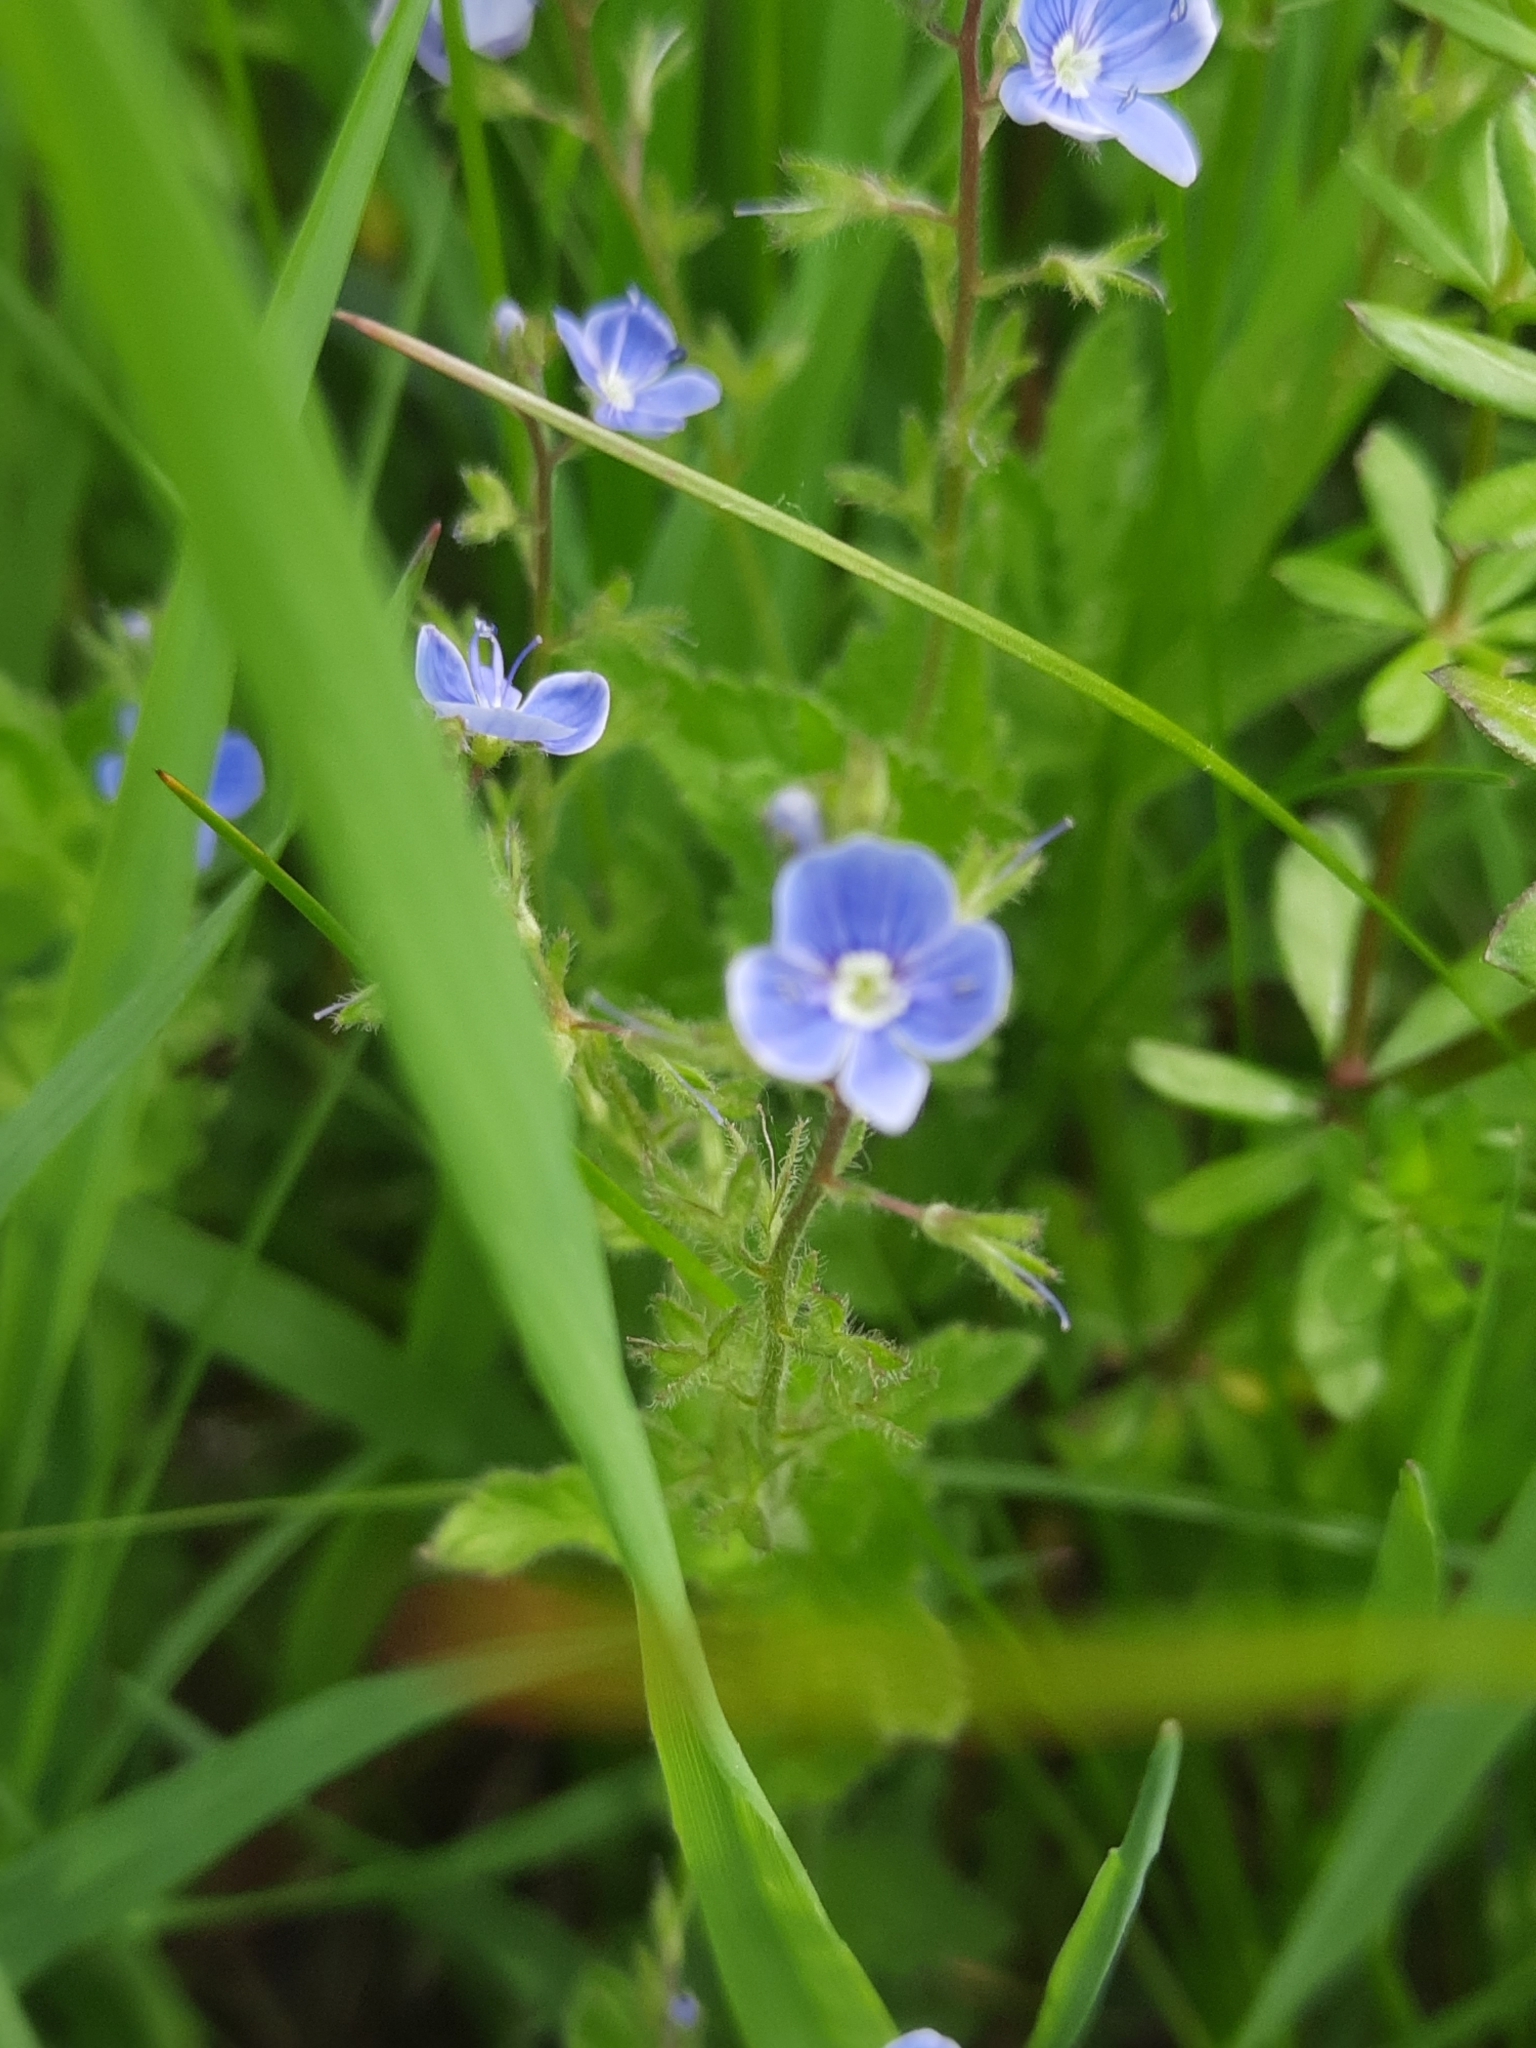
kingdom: Plantae
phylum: Tracheophyta
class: Magnoliopsida
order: Lamiales
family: Plantaginaceae
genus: Veronica
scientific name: Veronica chamaedrys
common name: Germander speedwell
